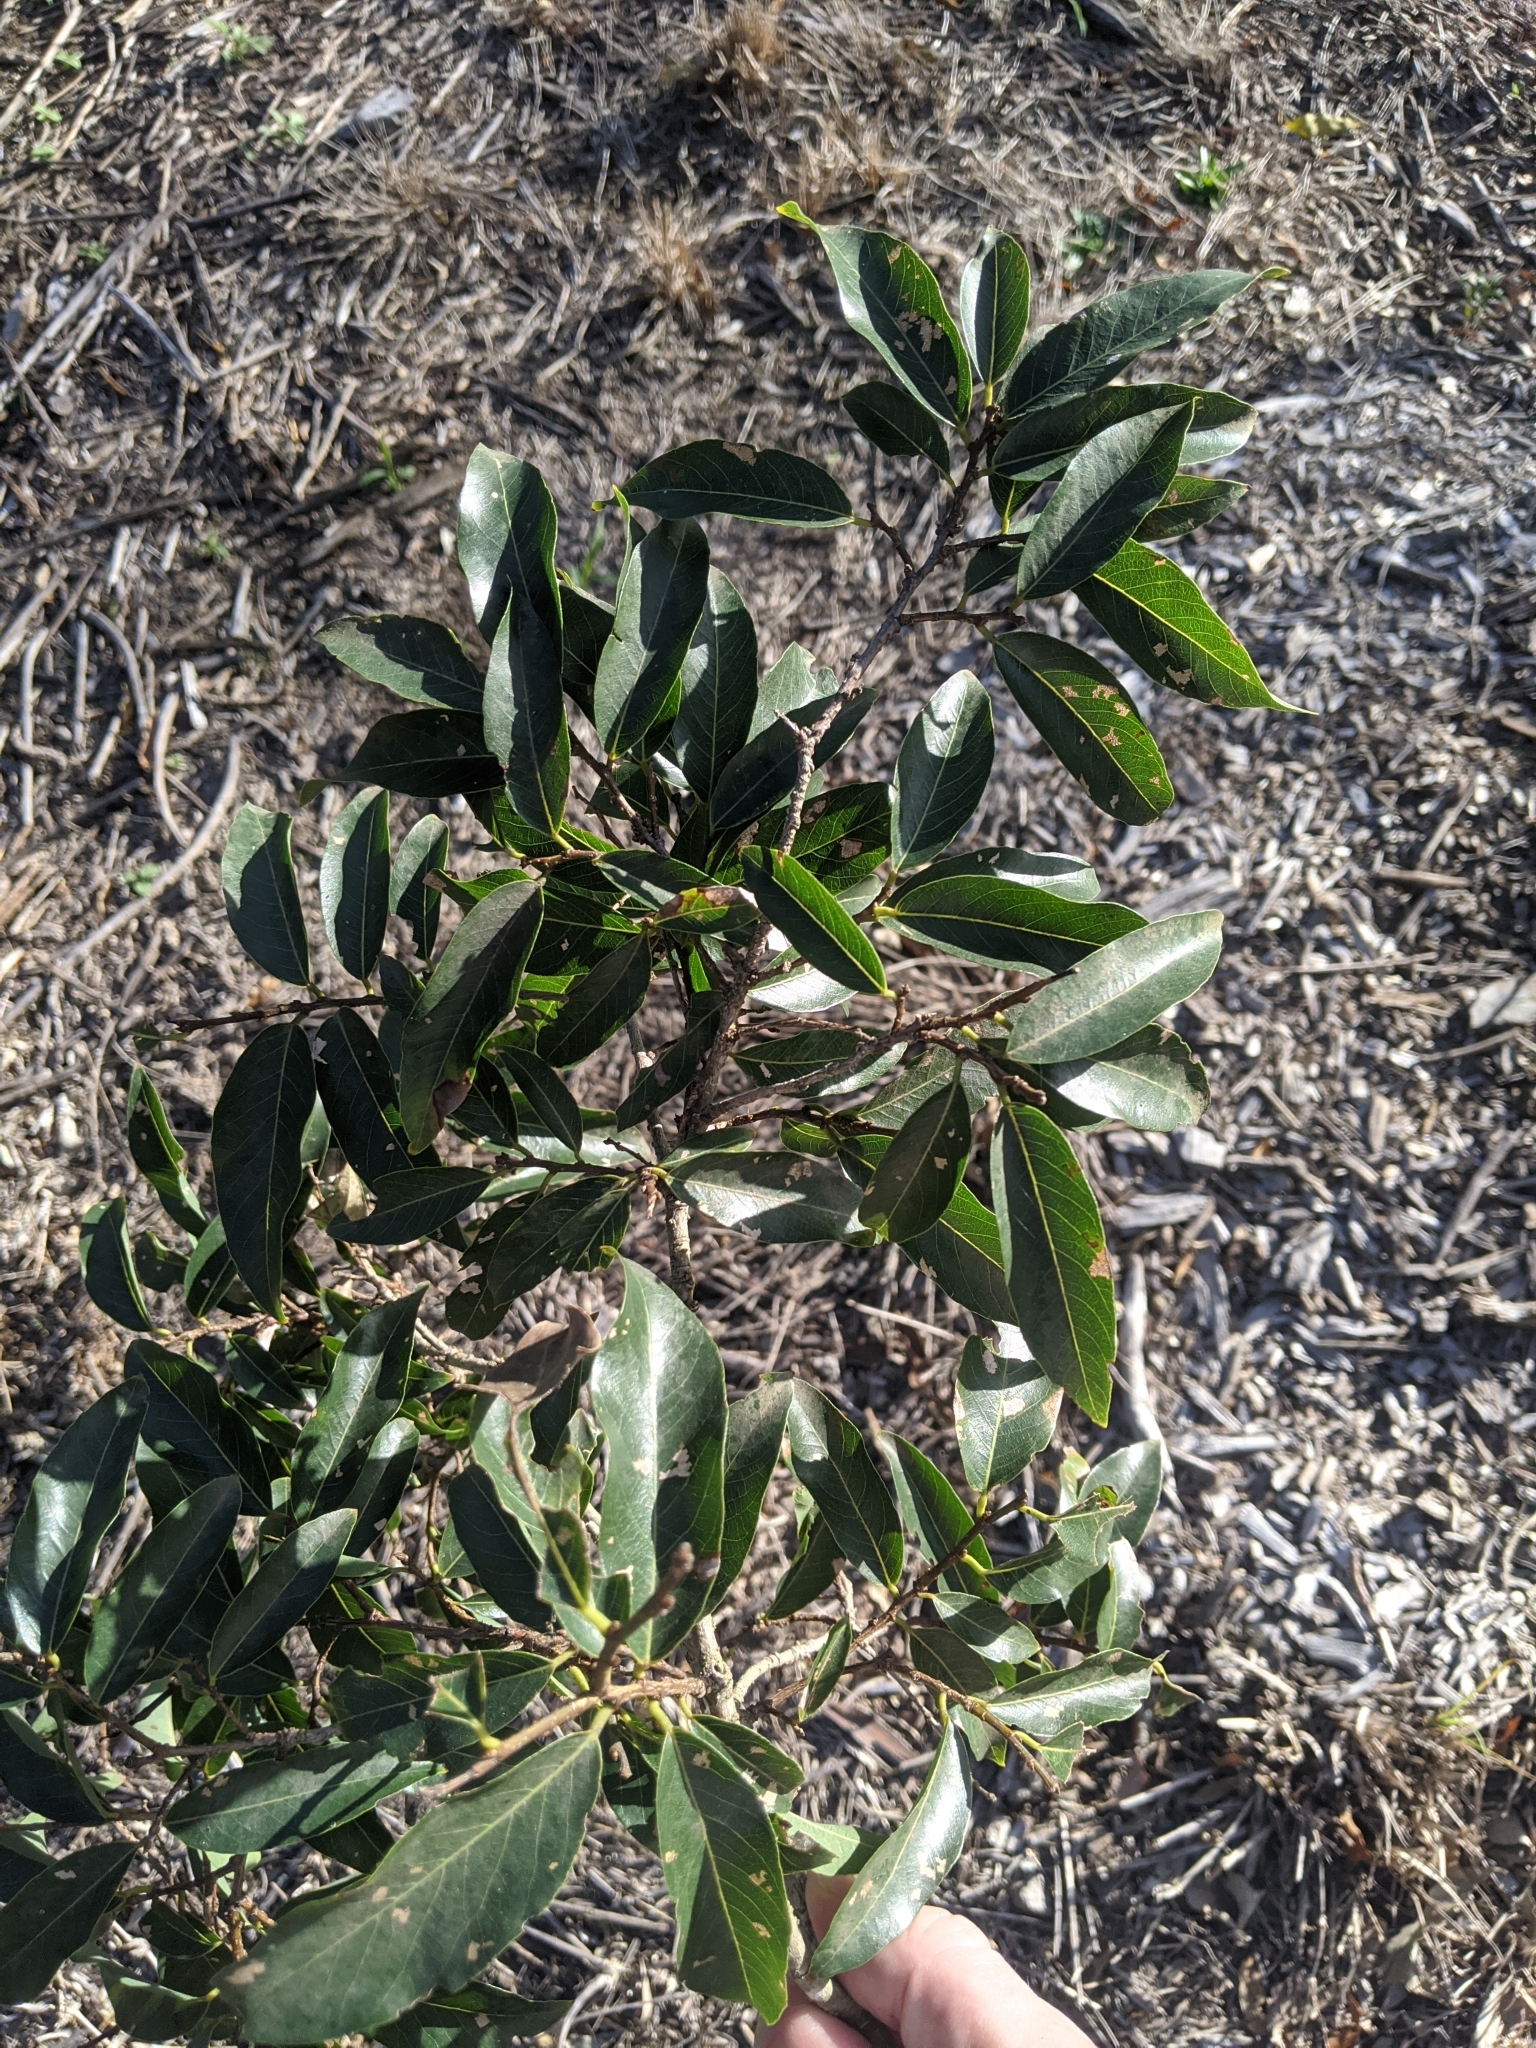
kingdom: Plantae
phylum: Tracheophyta
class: Magnoliopsida
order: Malpighiales
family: Phyllanthaceae
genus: Bridelia
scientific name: Bridelia exaltata
